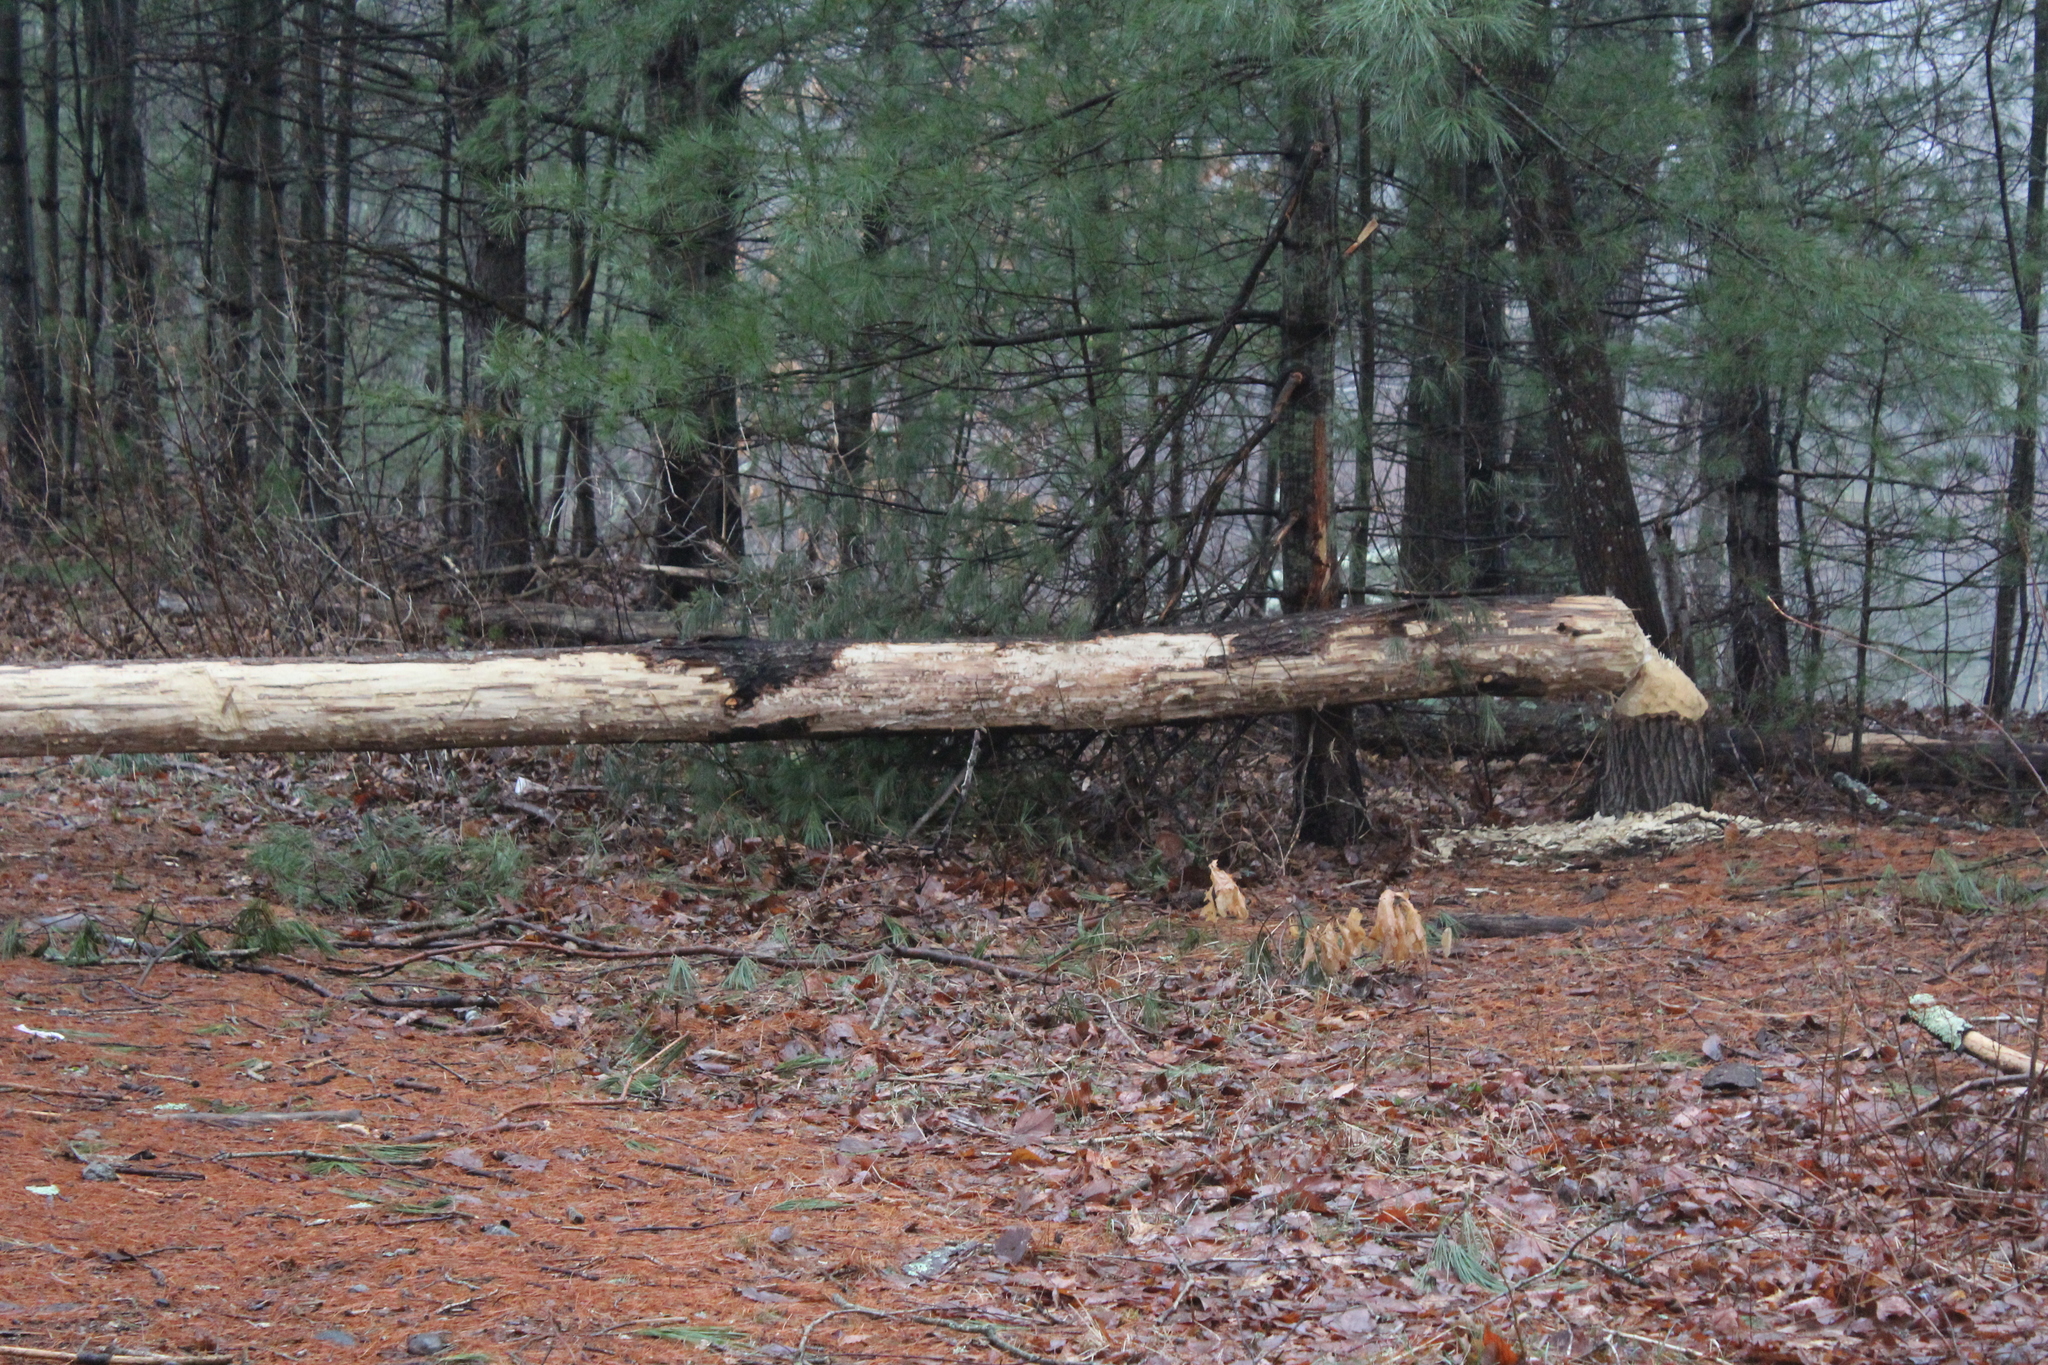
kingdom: Animalia
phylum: Chordata
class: Mammalia
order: Rodentia
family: Castoridae
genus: Castor
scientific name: Castor canadensis
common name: American beaver
